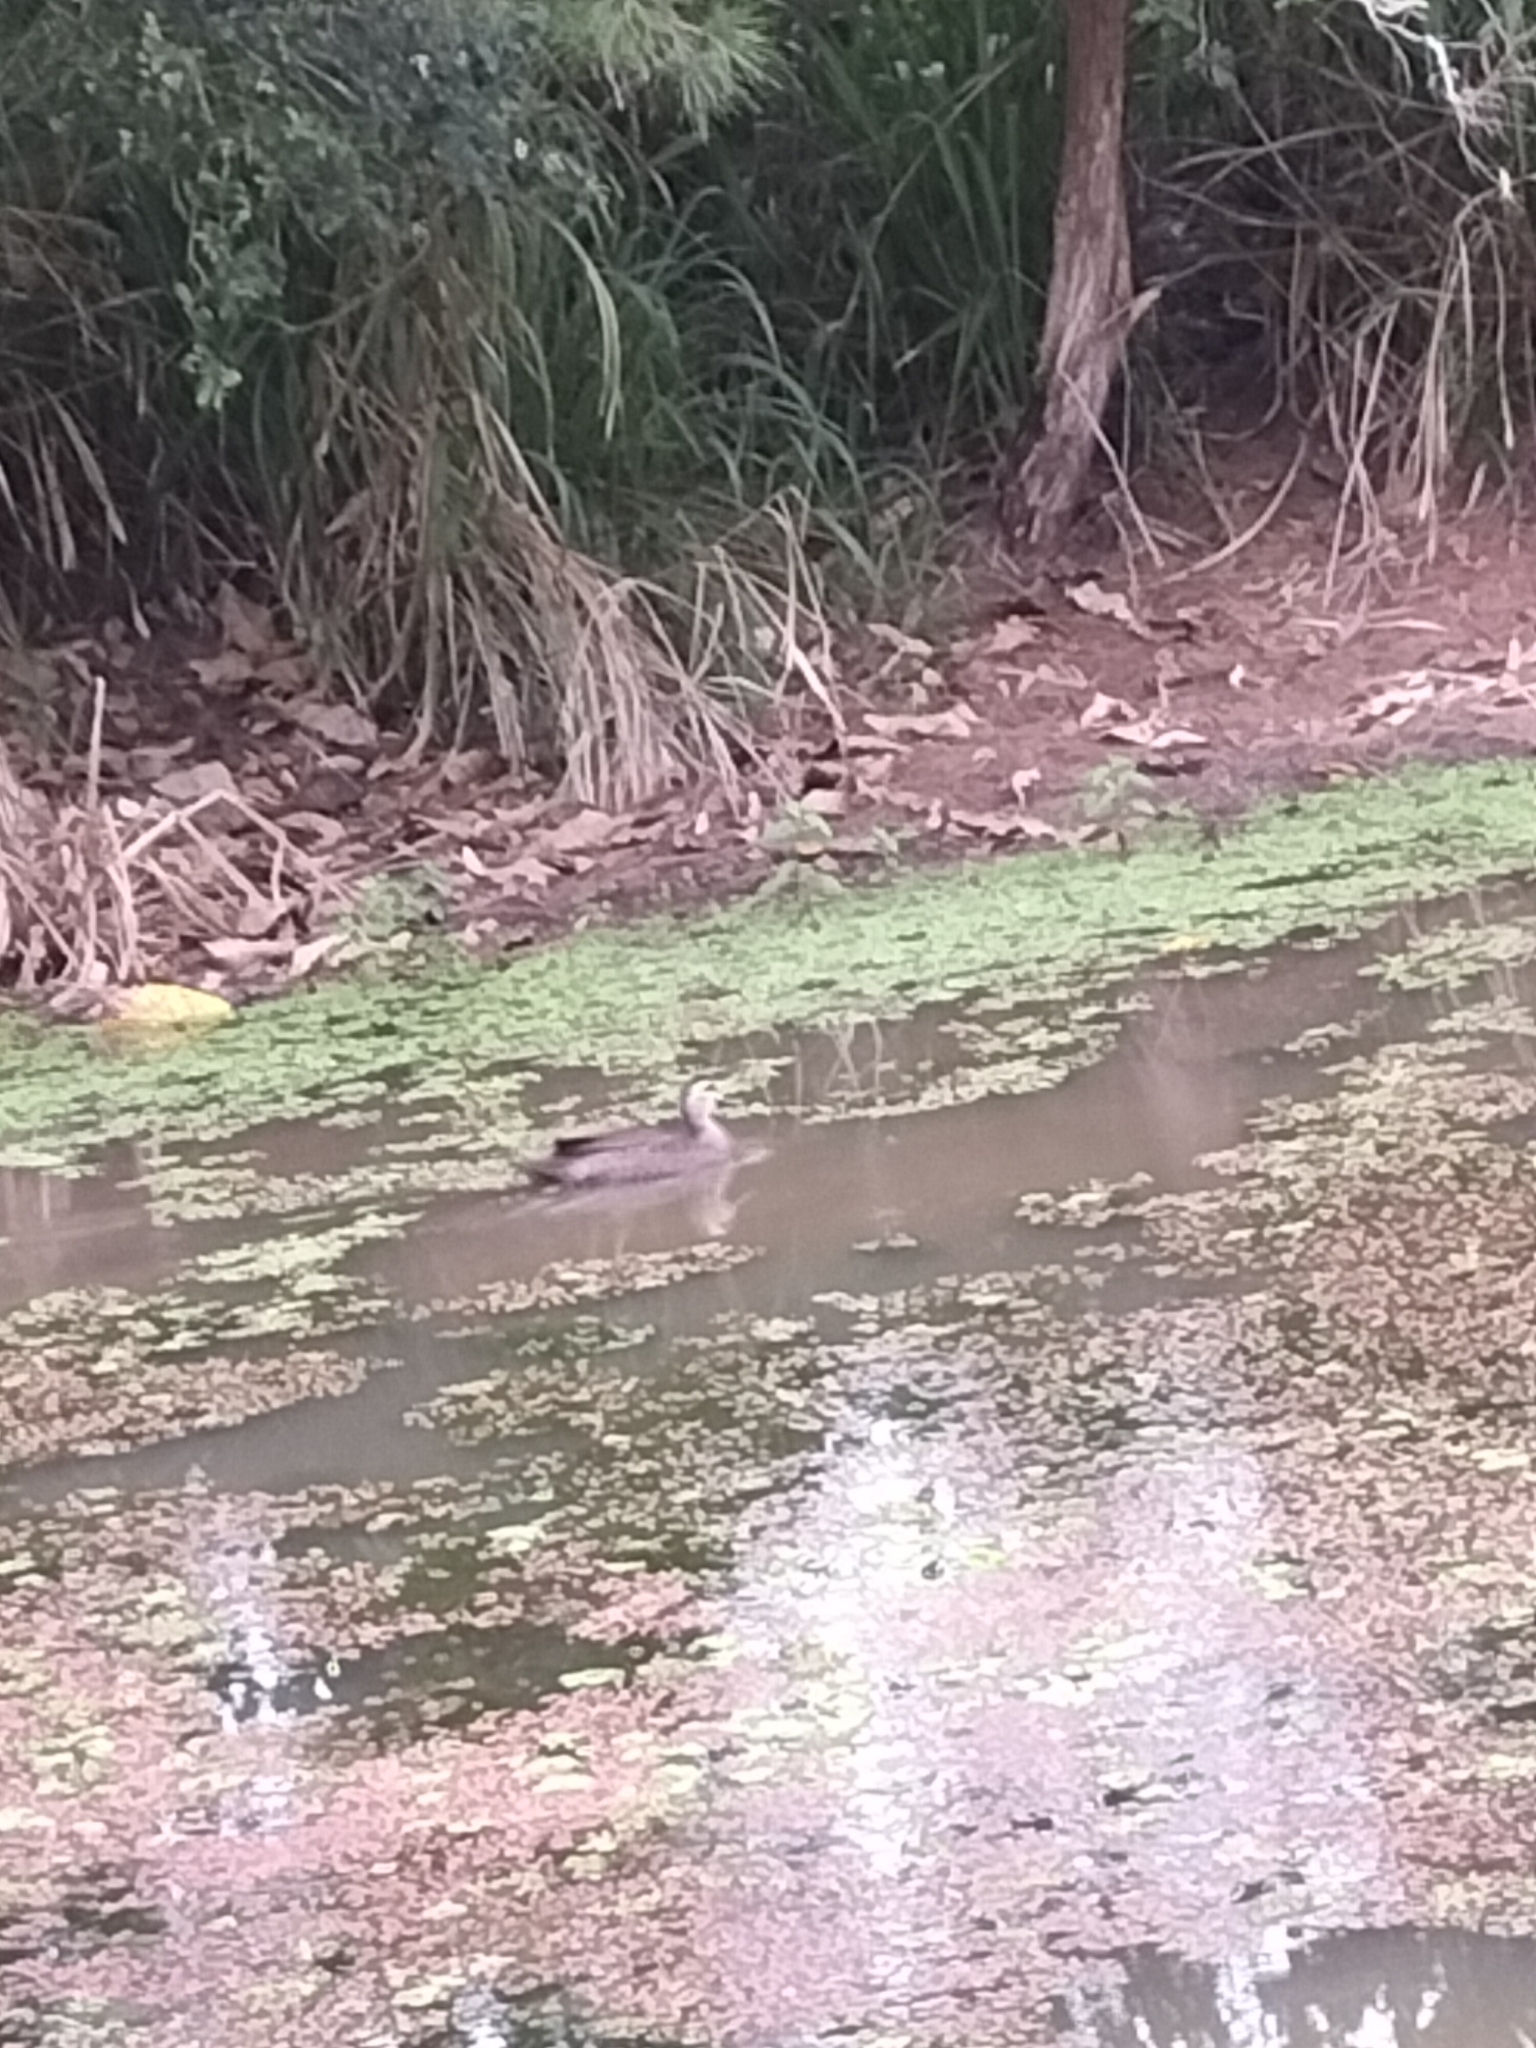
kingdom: Animalia
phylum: Chordata
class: Aves
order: Anseriformes
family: Anatidae
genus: Anas
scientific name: Anas superciliosa
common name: Pacific black duck
